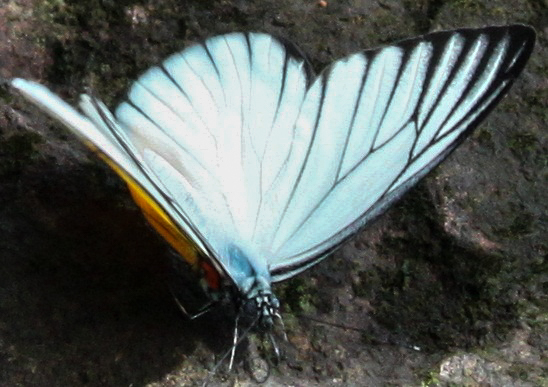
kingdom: Animalia
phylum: Arthropoda
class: Insecta
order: Lepidoptera
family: Pieridae
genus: Prioneris
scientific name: Prioneris
